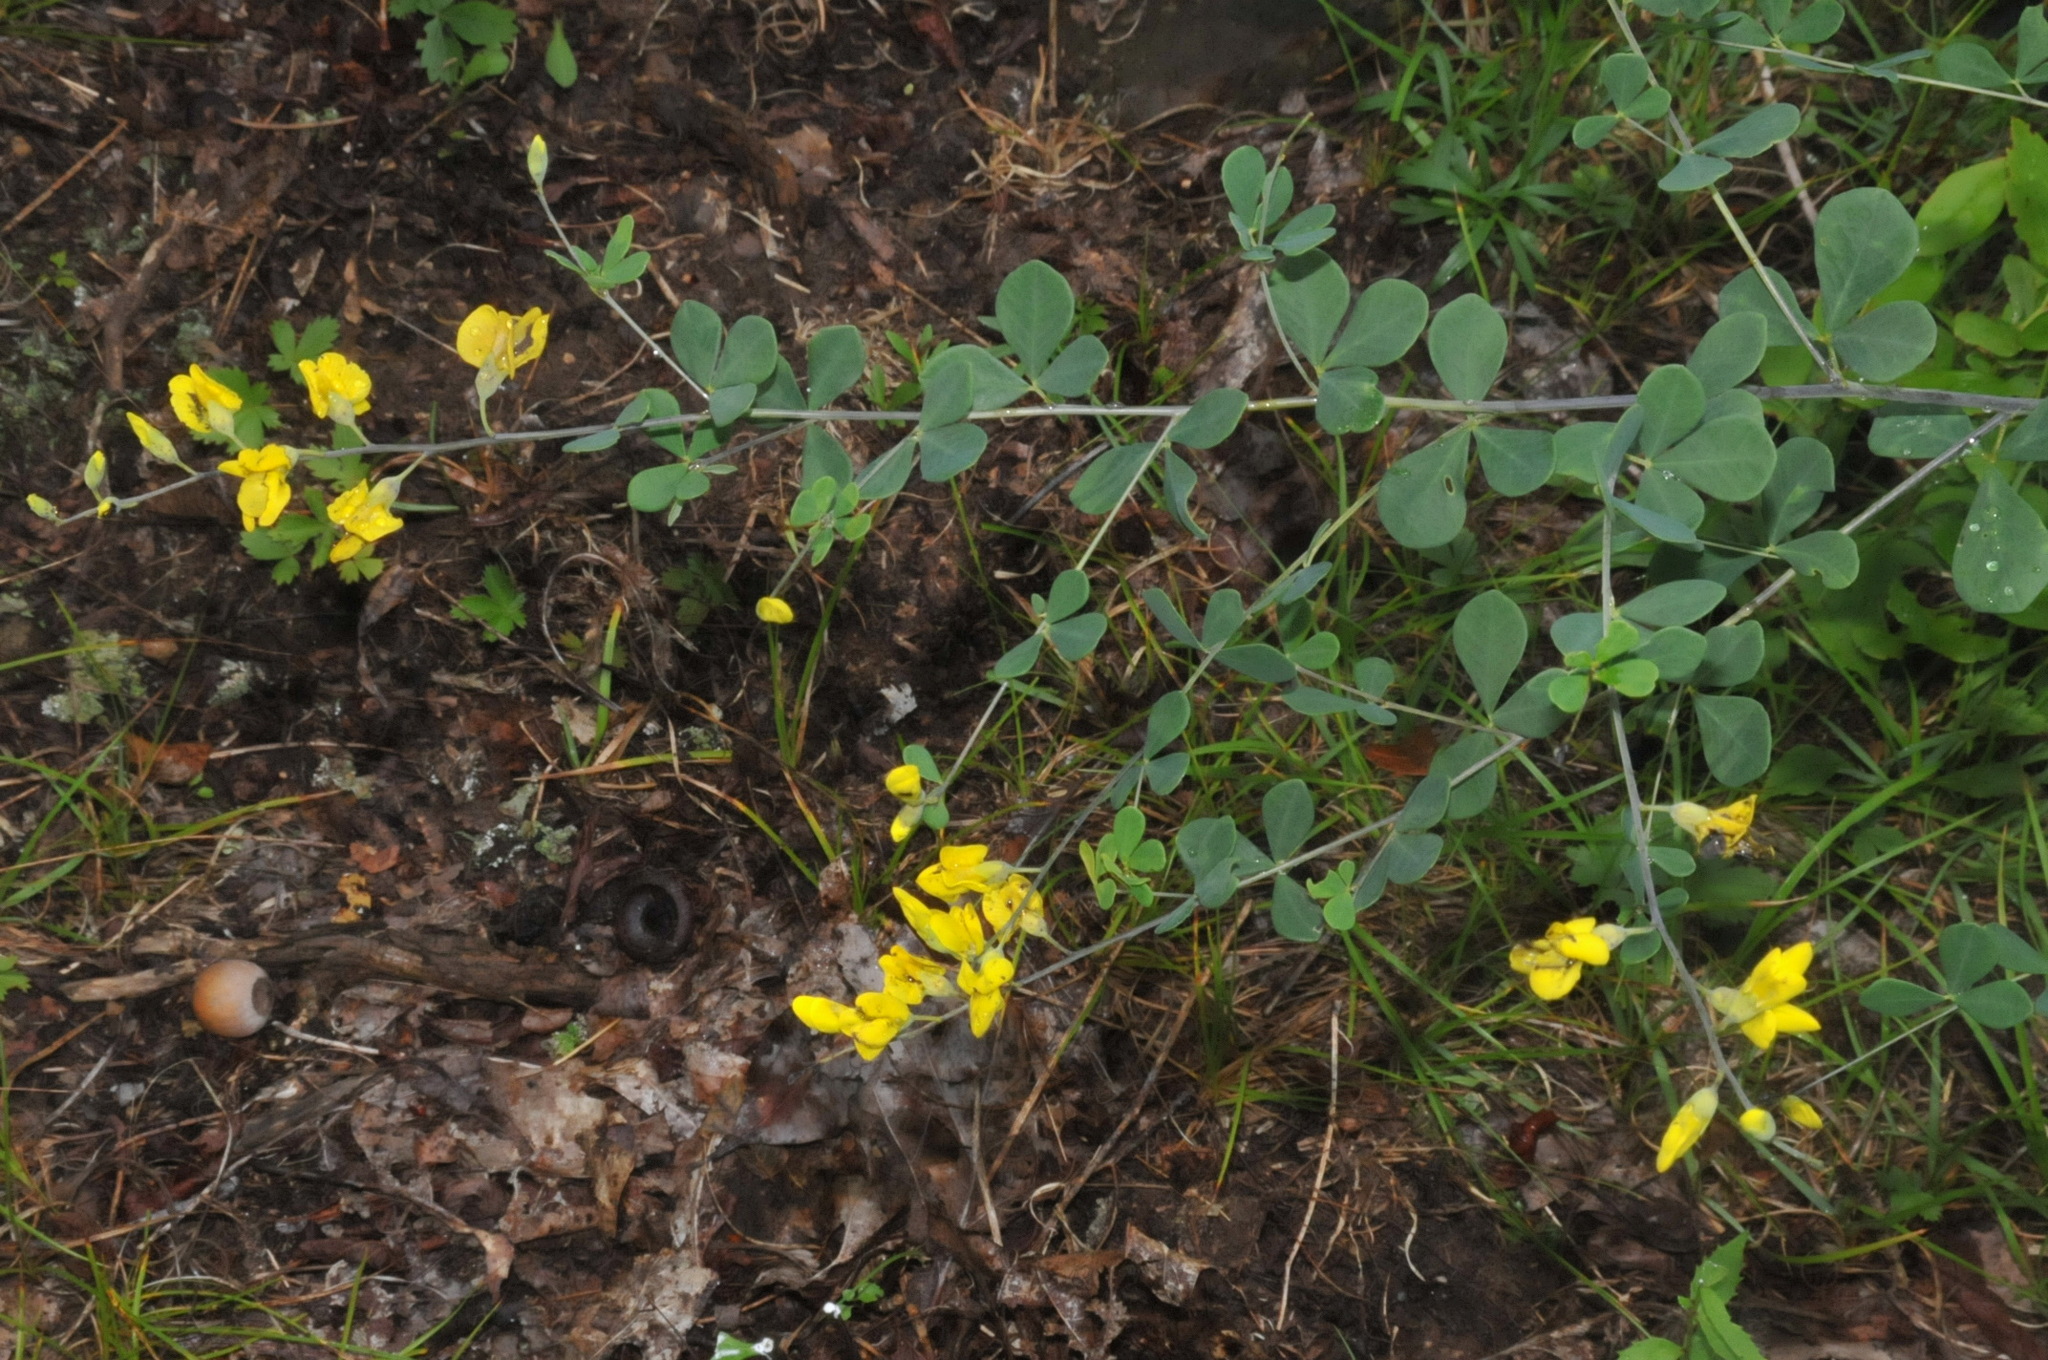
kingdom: Plantae
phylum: Tracheophyta
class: Magnoliopsida
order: Fabales
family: Fabaceae
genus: Baptisia
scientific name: Baptisia tinctoria
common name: Wild indigo
